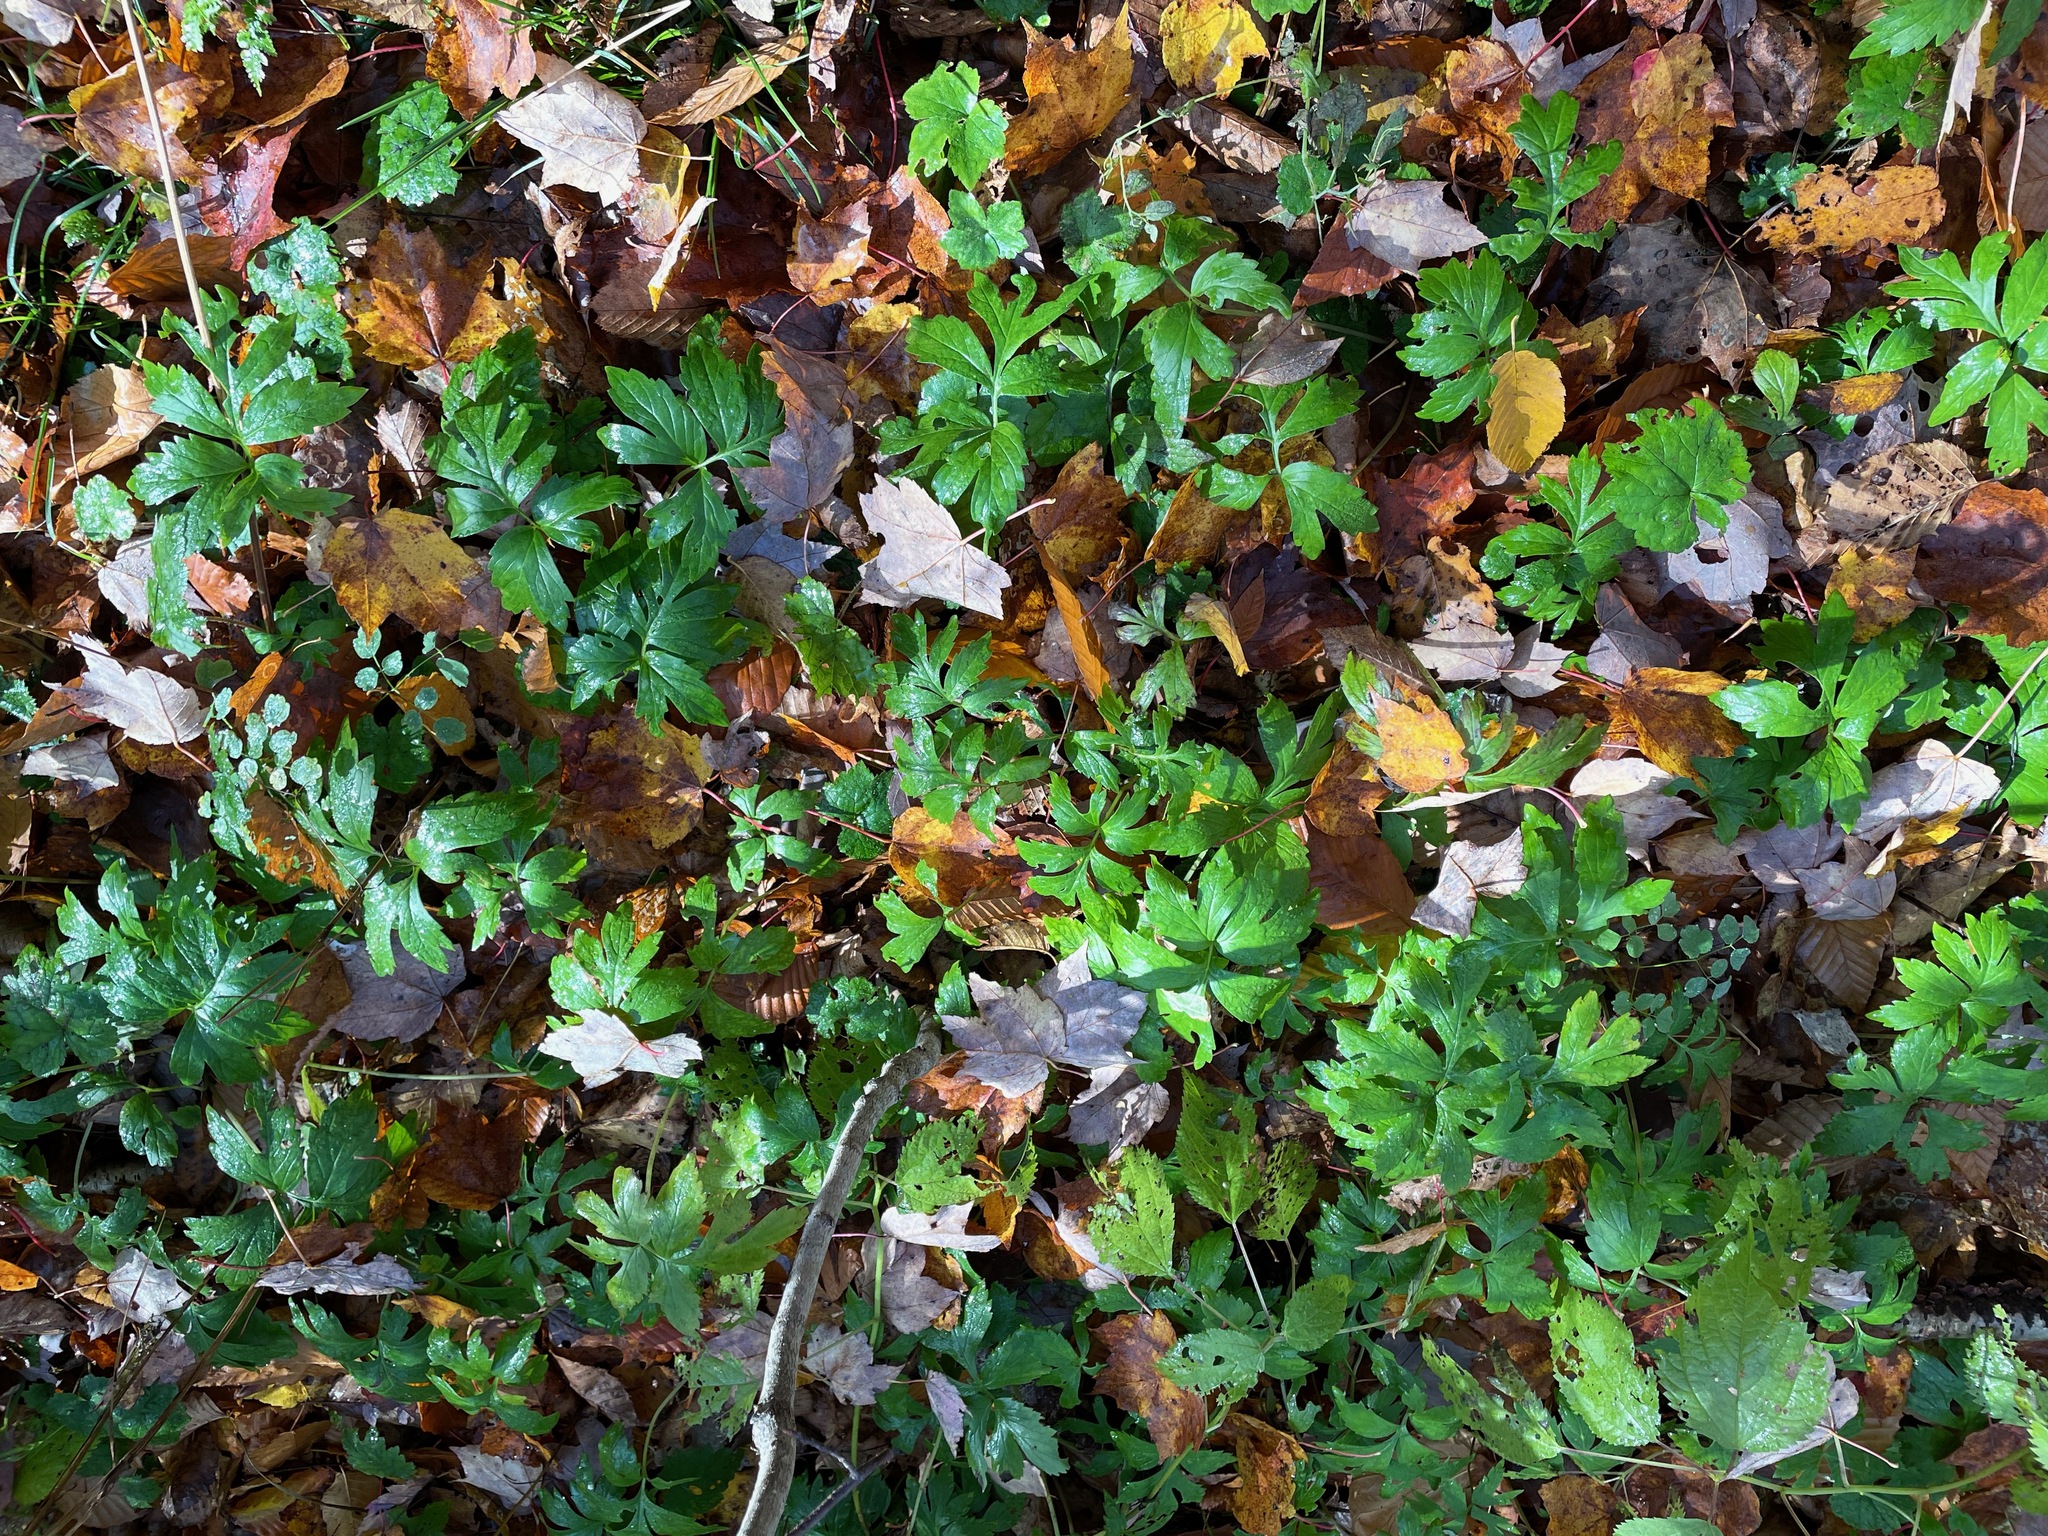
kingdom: Plantae
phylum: Tracheophyta
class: Magnoliopsida
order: Boraginales
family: Hydrophyllaceae
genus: Hydrophyllum
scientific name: Hydrophyllum virginianum
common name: Virginia waterleaf
